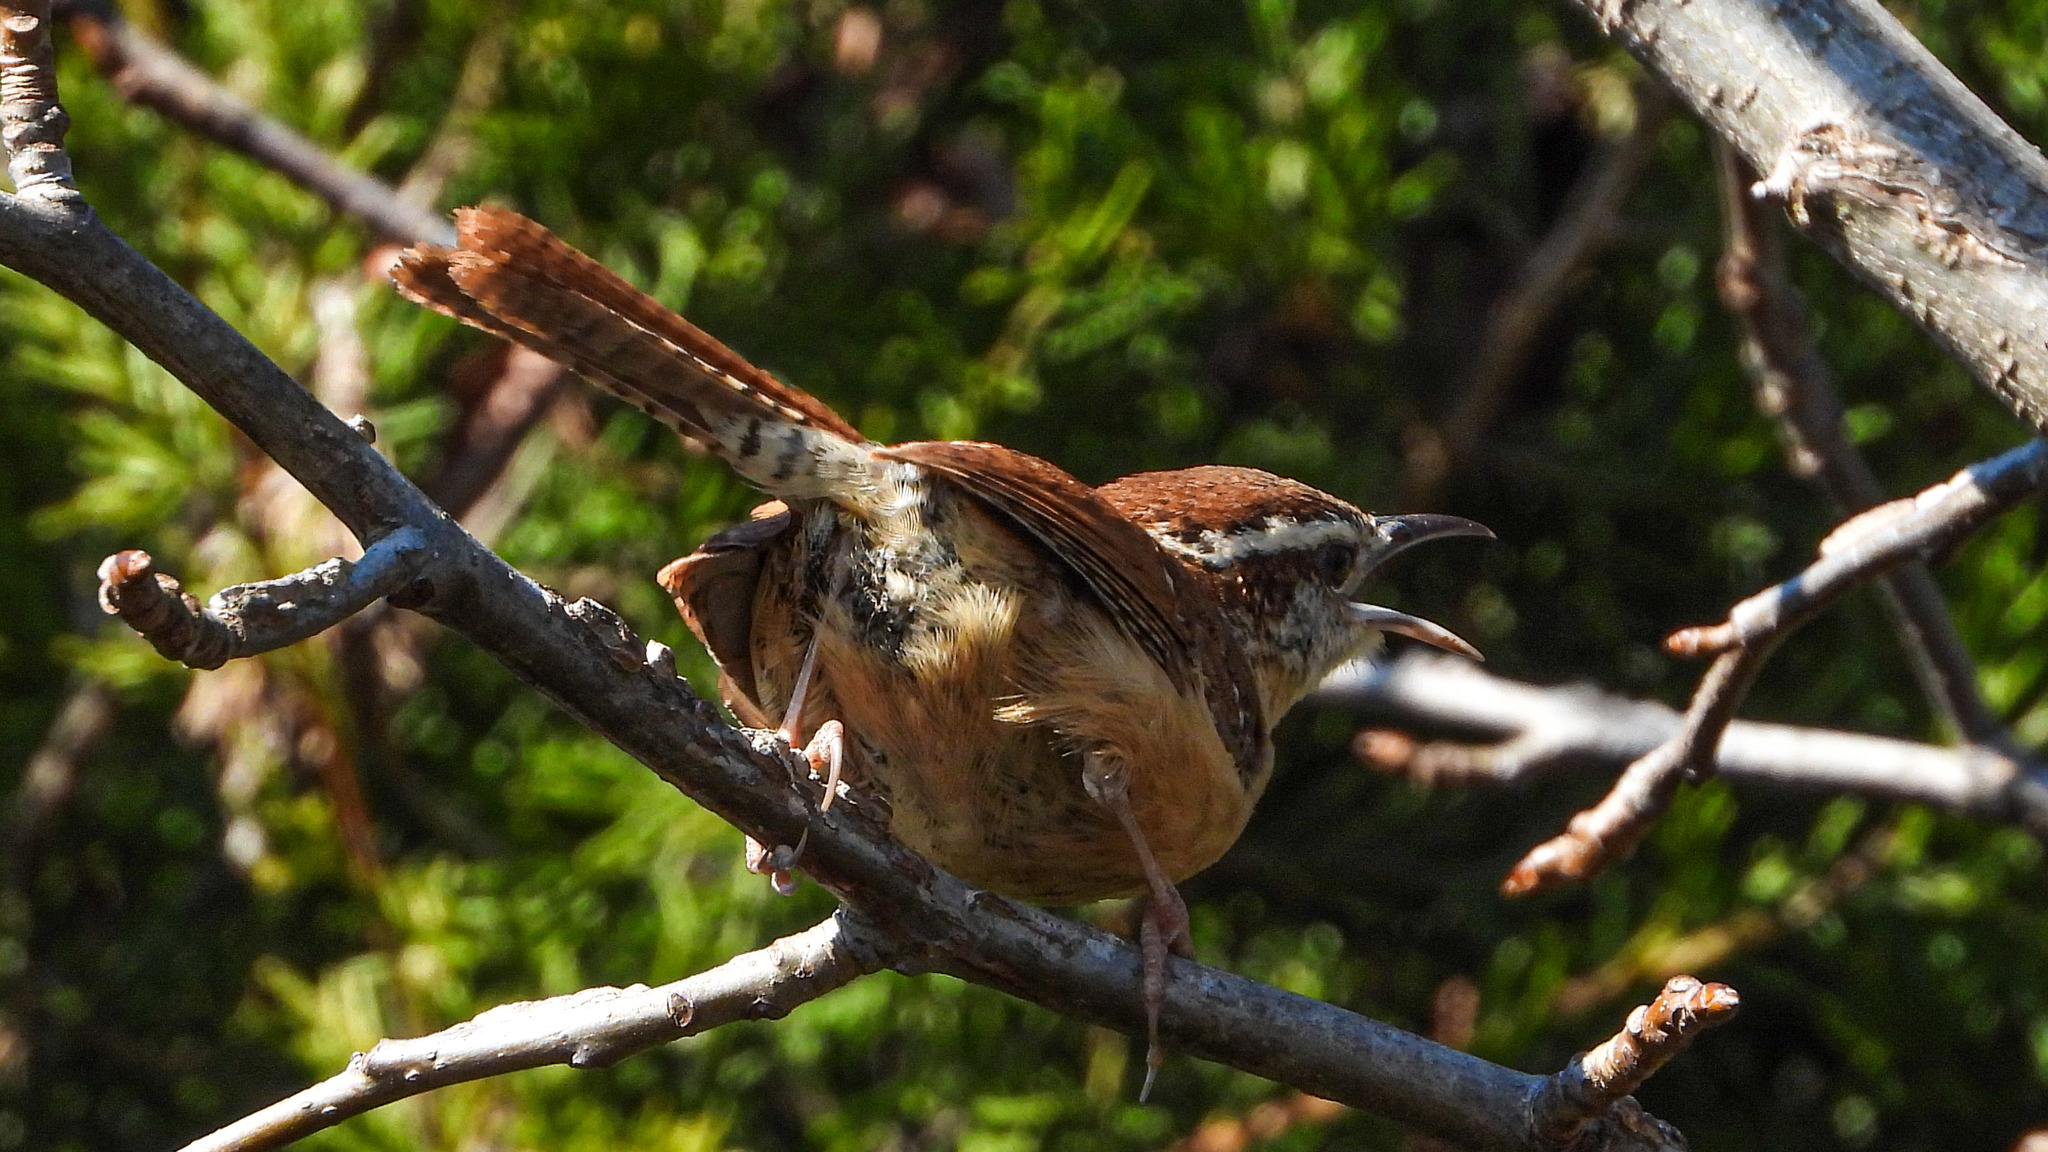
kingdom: Animalia
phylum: Chordata
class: Aves
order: Passeriformes
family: Troglodytidae
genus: Thryothorus
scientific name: Thryothorus ludovicianus
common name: Carolina wren
